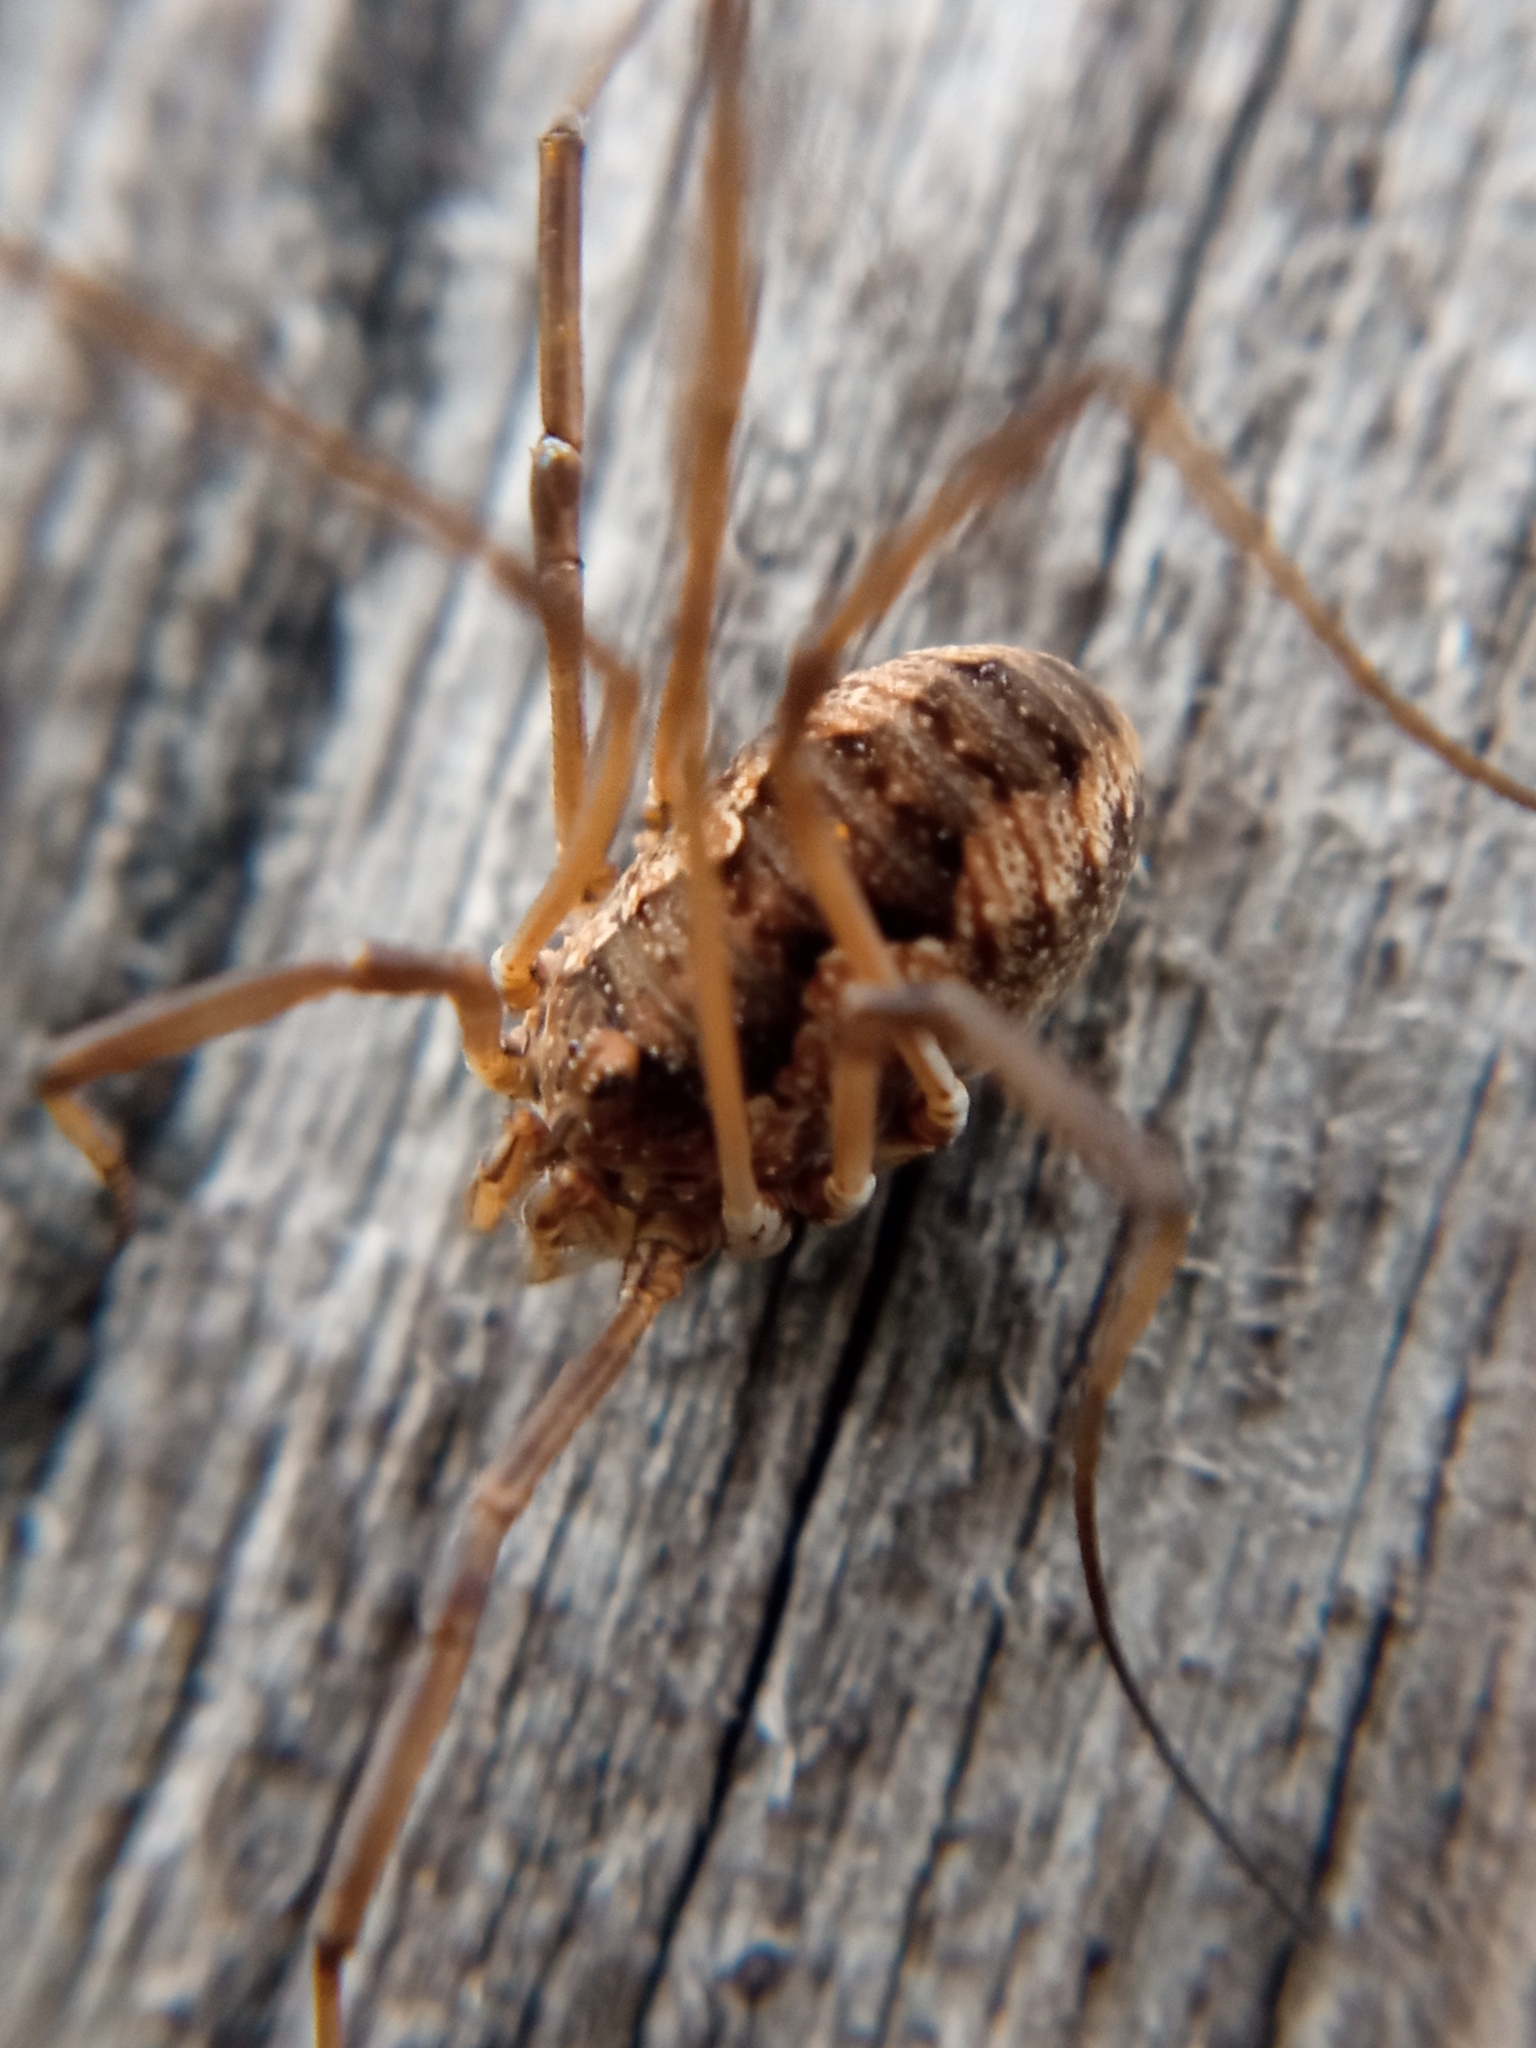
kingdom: Animalia
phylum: Arthropoda
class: Arachnida
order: Opiliones
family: Phalangiidae
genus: Phalangium
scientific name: Phalangium opilio
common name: Daddy longleg
